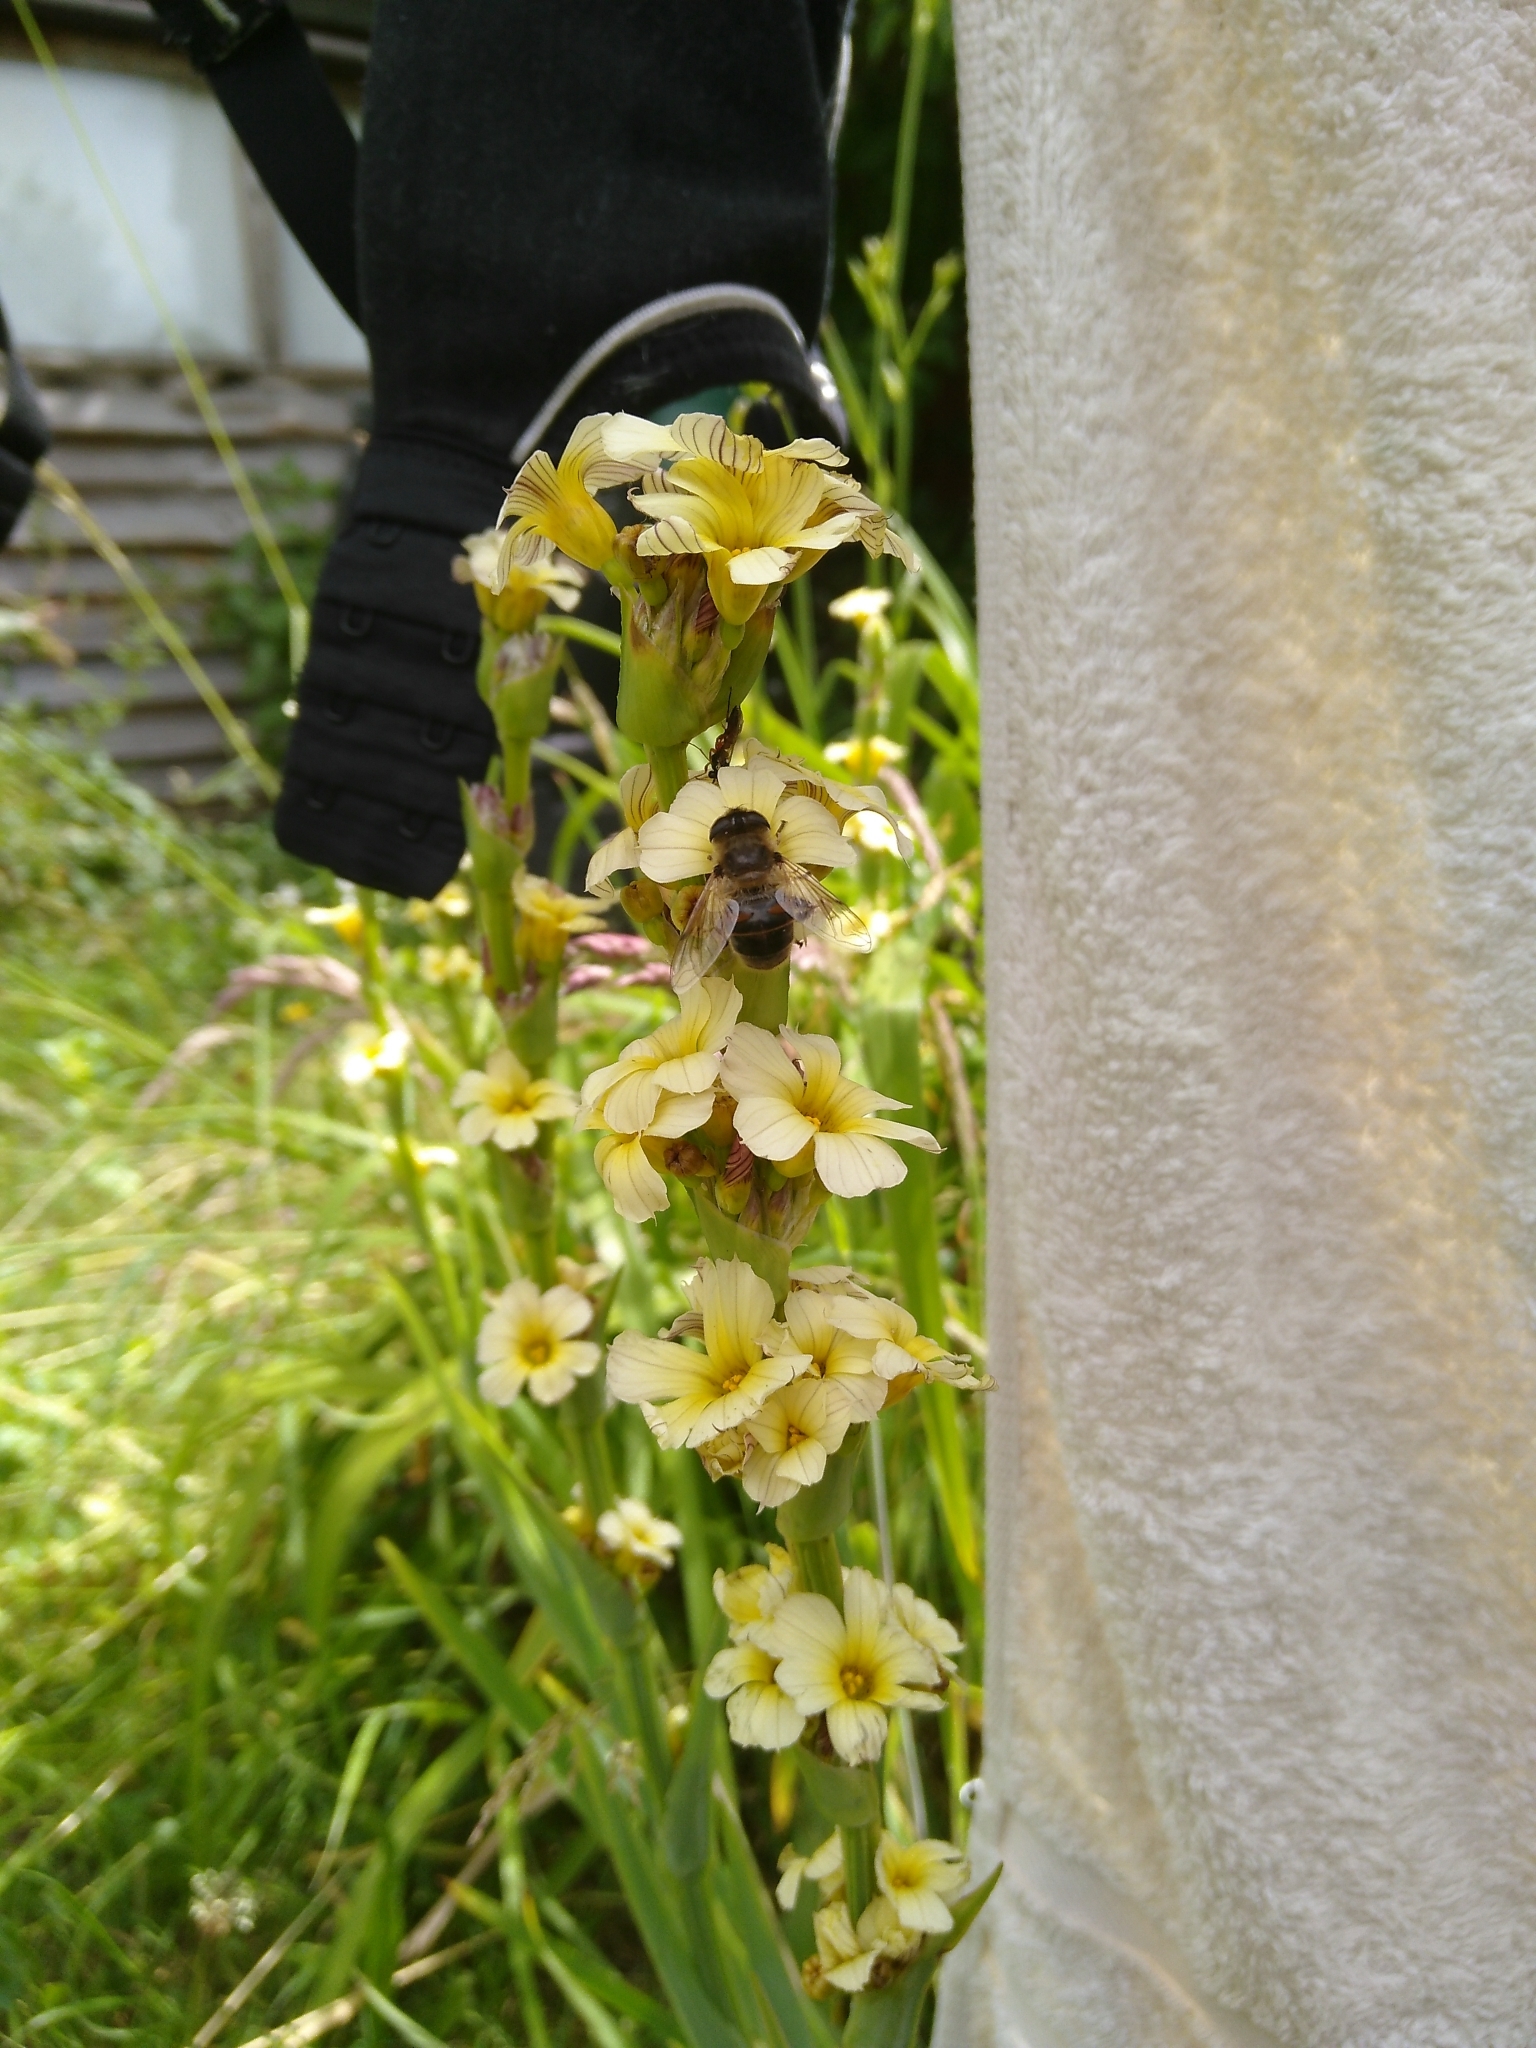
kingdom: Animalia
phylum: Arthropoda
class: Insecta
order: Diptera
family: Syrphidae
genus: Eristalis
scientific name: Eristalis tenax
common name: Drone fly
